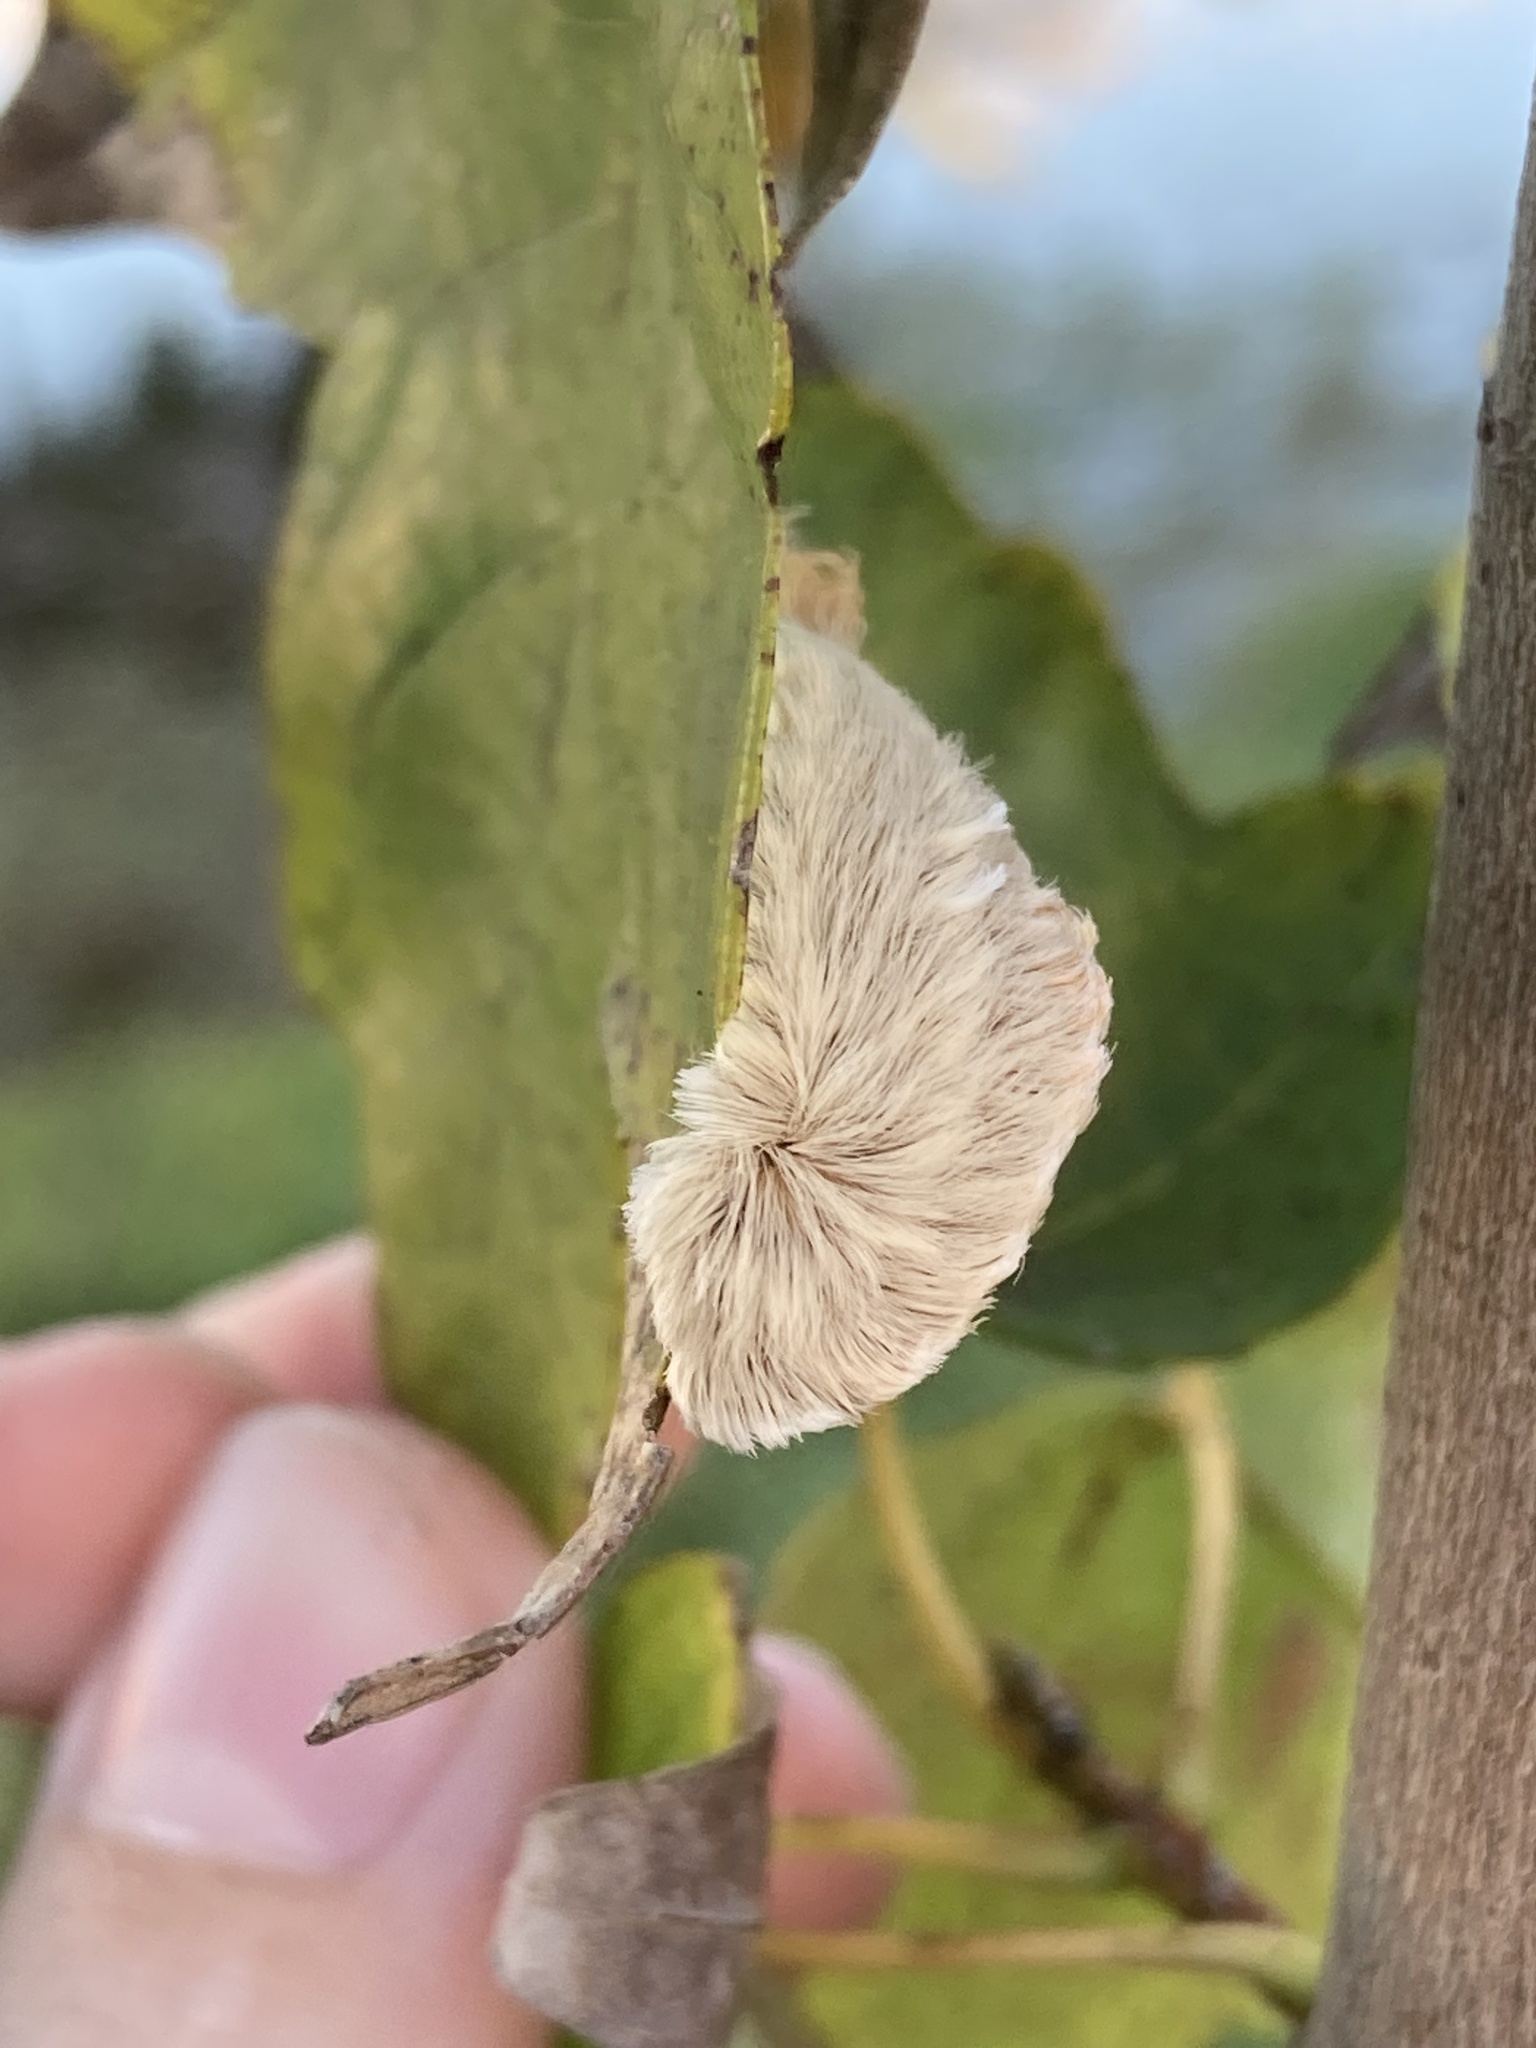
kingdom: Animalia
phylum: Arthropoda
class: Insecta
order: Lepidoptera
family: Megalopygidae
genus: Megalopyge
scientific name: Megalopyge opercularis
